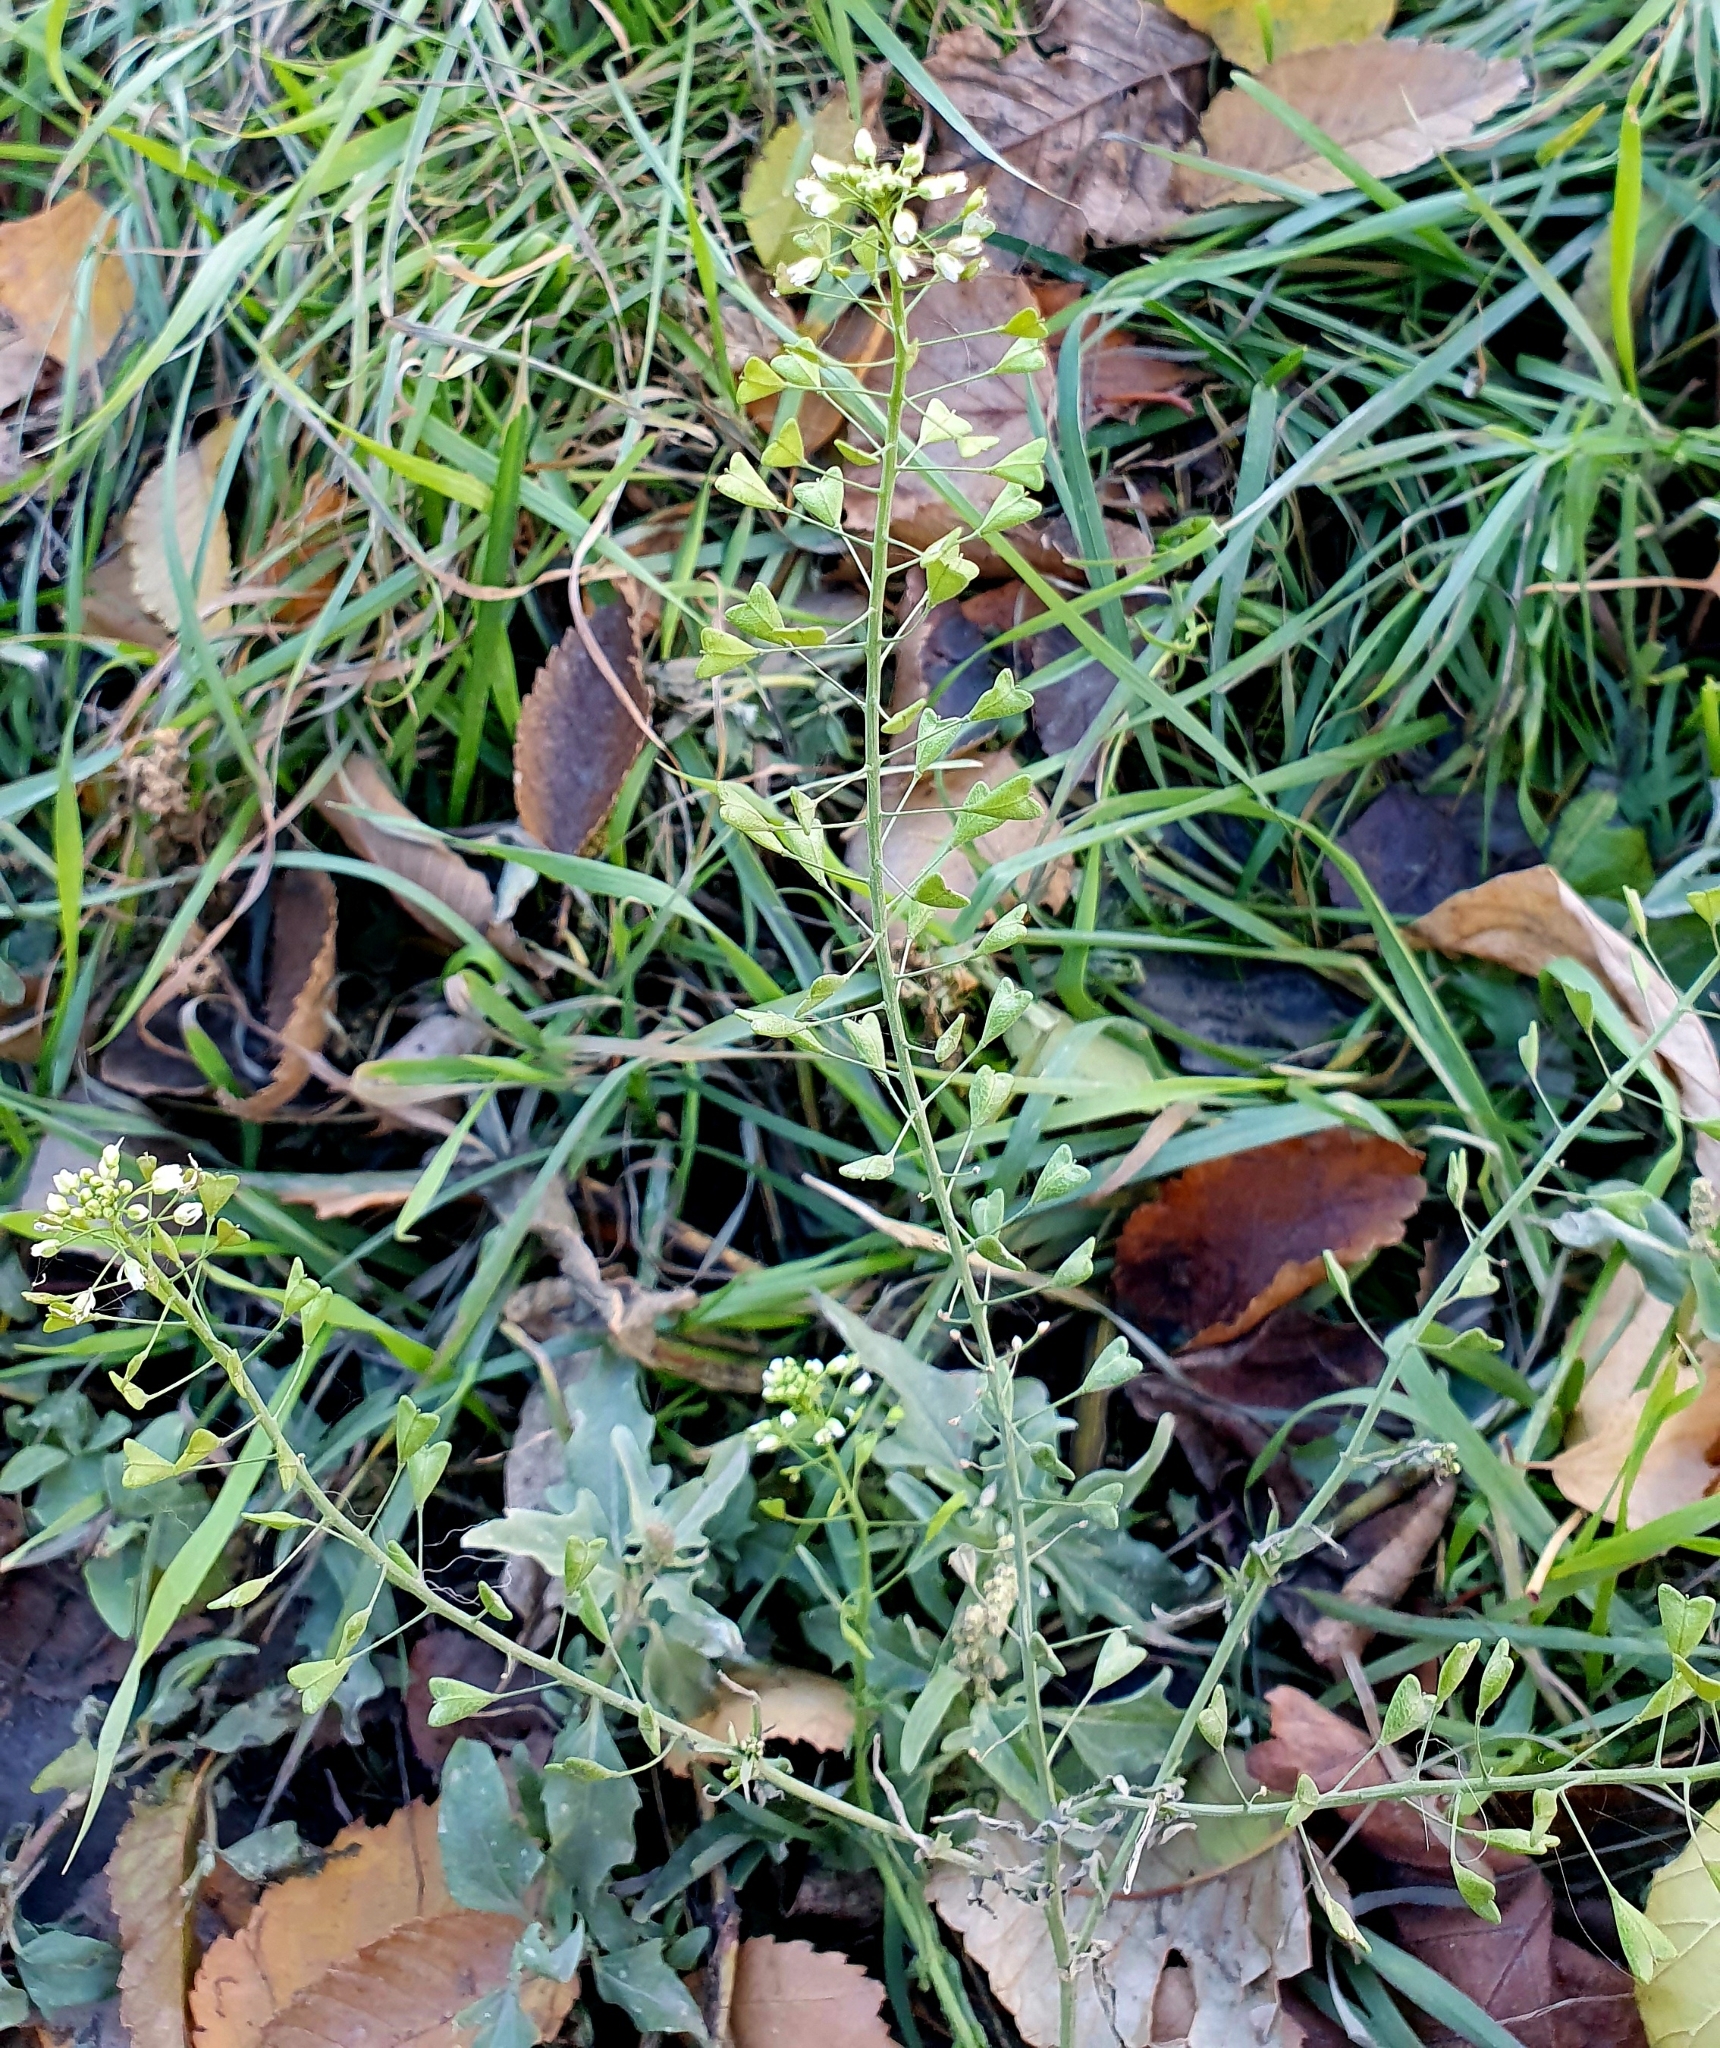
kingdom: Plantae
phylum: Tracheophyta
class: Magnoliopsida
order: Brassicales
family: Brassicaceae
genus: Capsella
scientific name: Capsella bursa-pastoris
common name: Shepherd's purse
